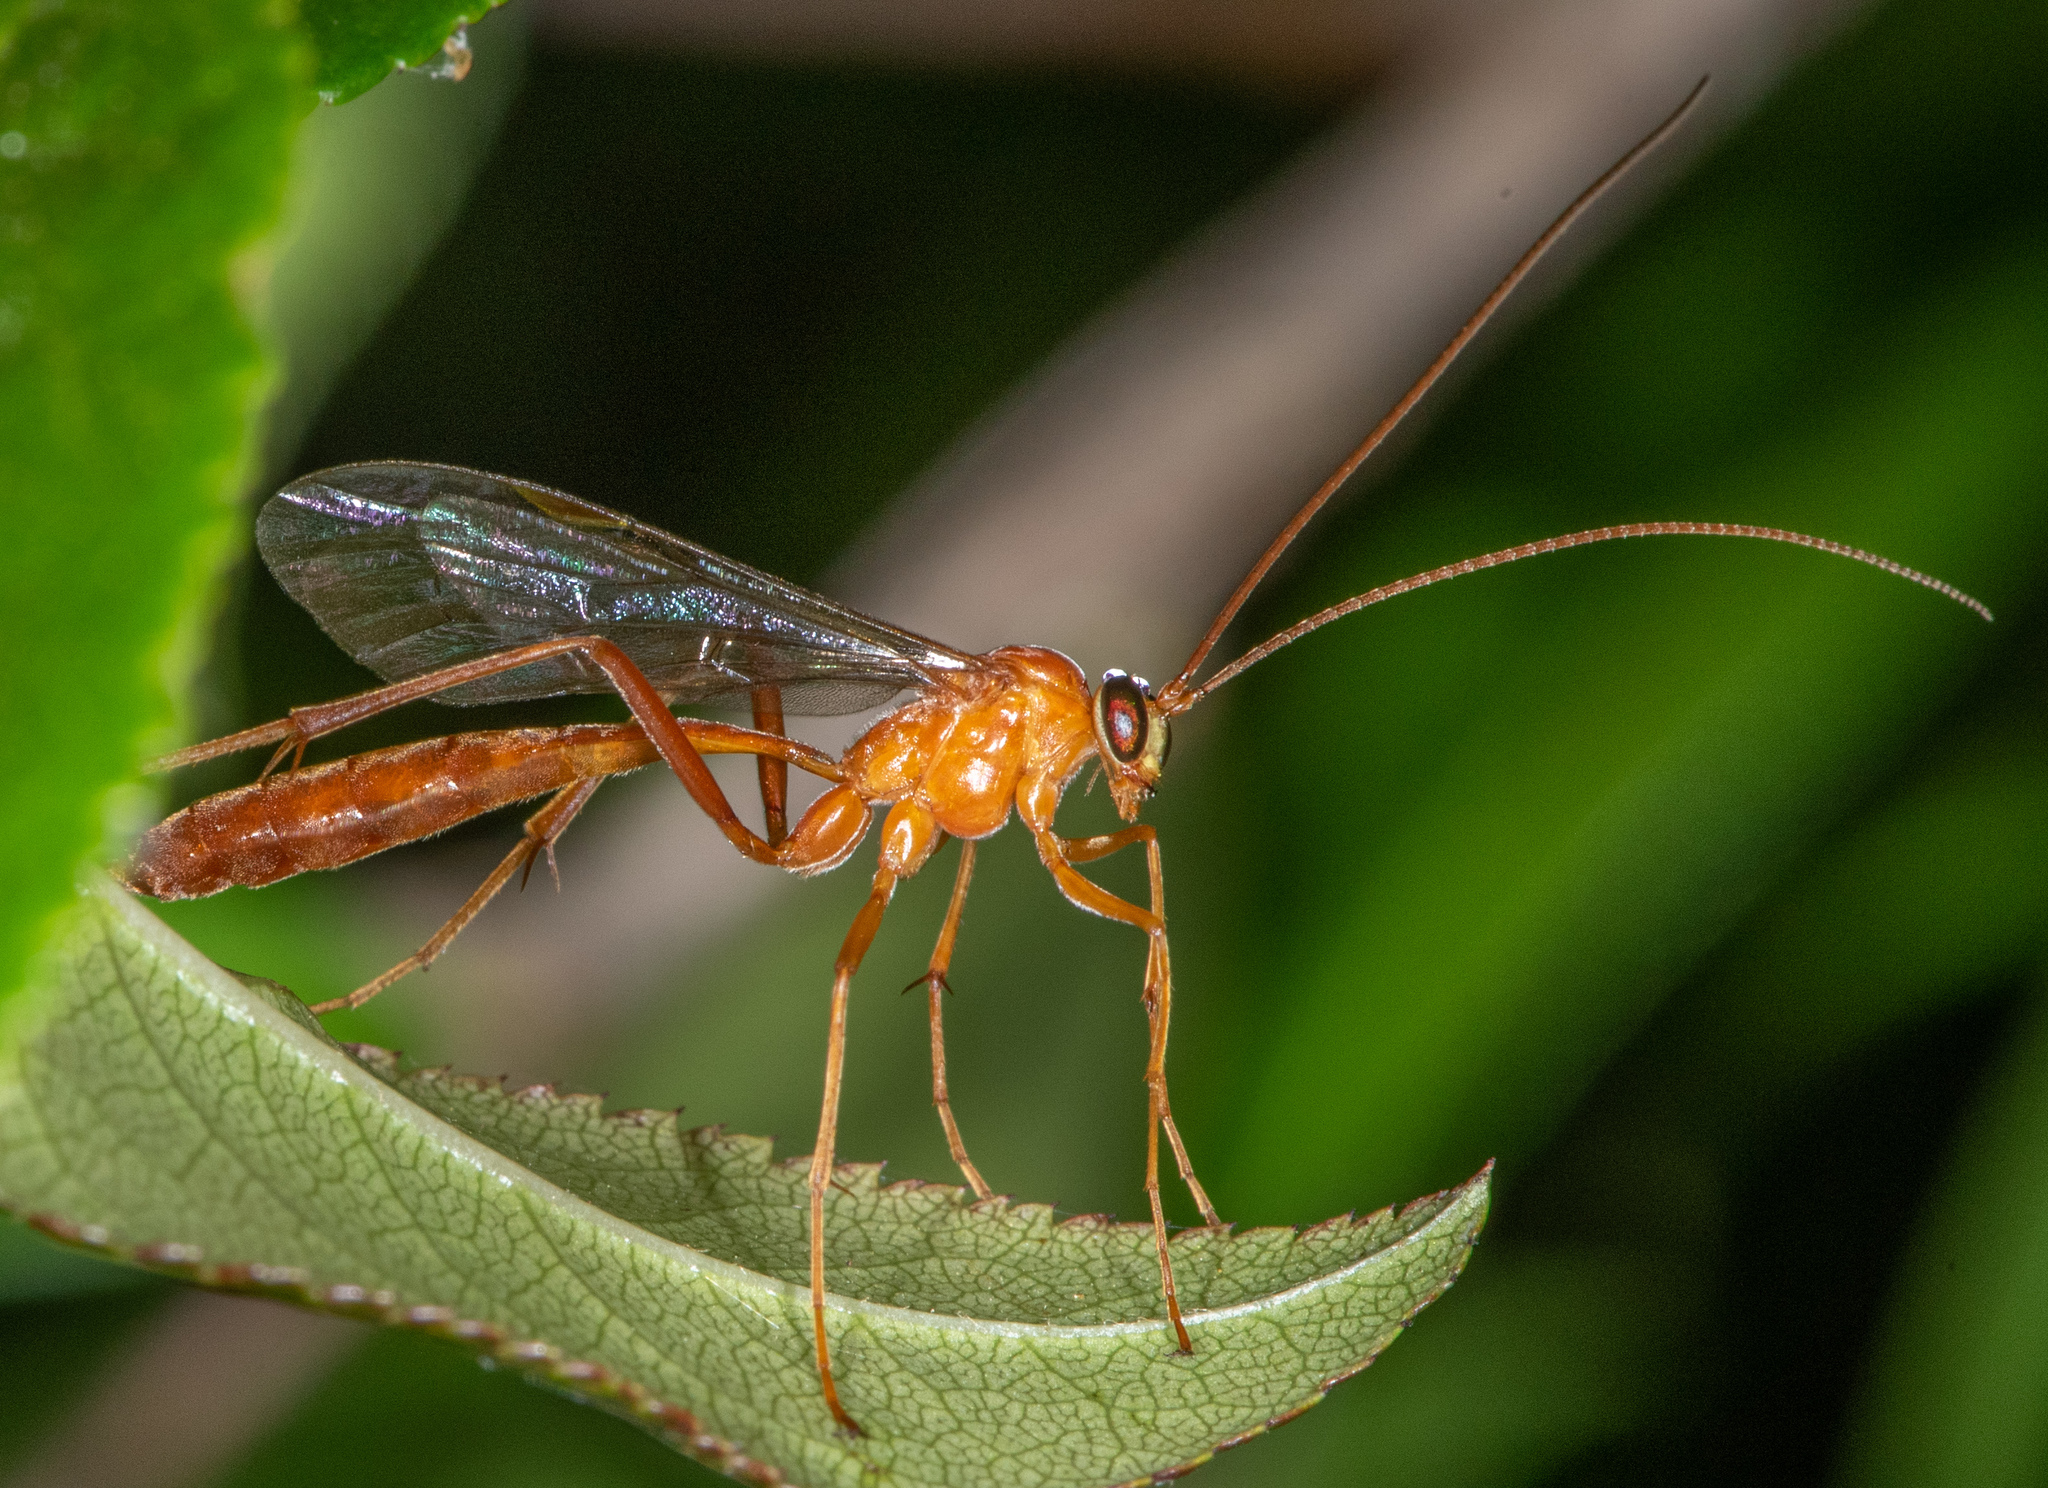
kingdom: Animalia
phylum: Arthropoda
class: Insecta
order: Hymenoptera
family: Ichneumonidae
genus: Netelia
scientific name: Netelia
